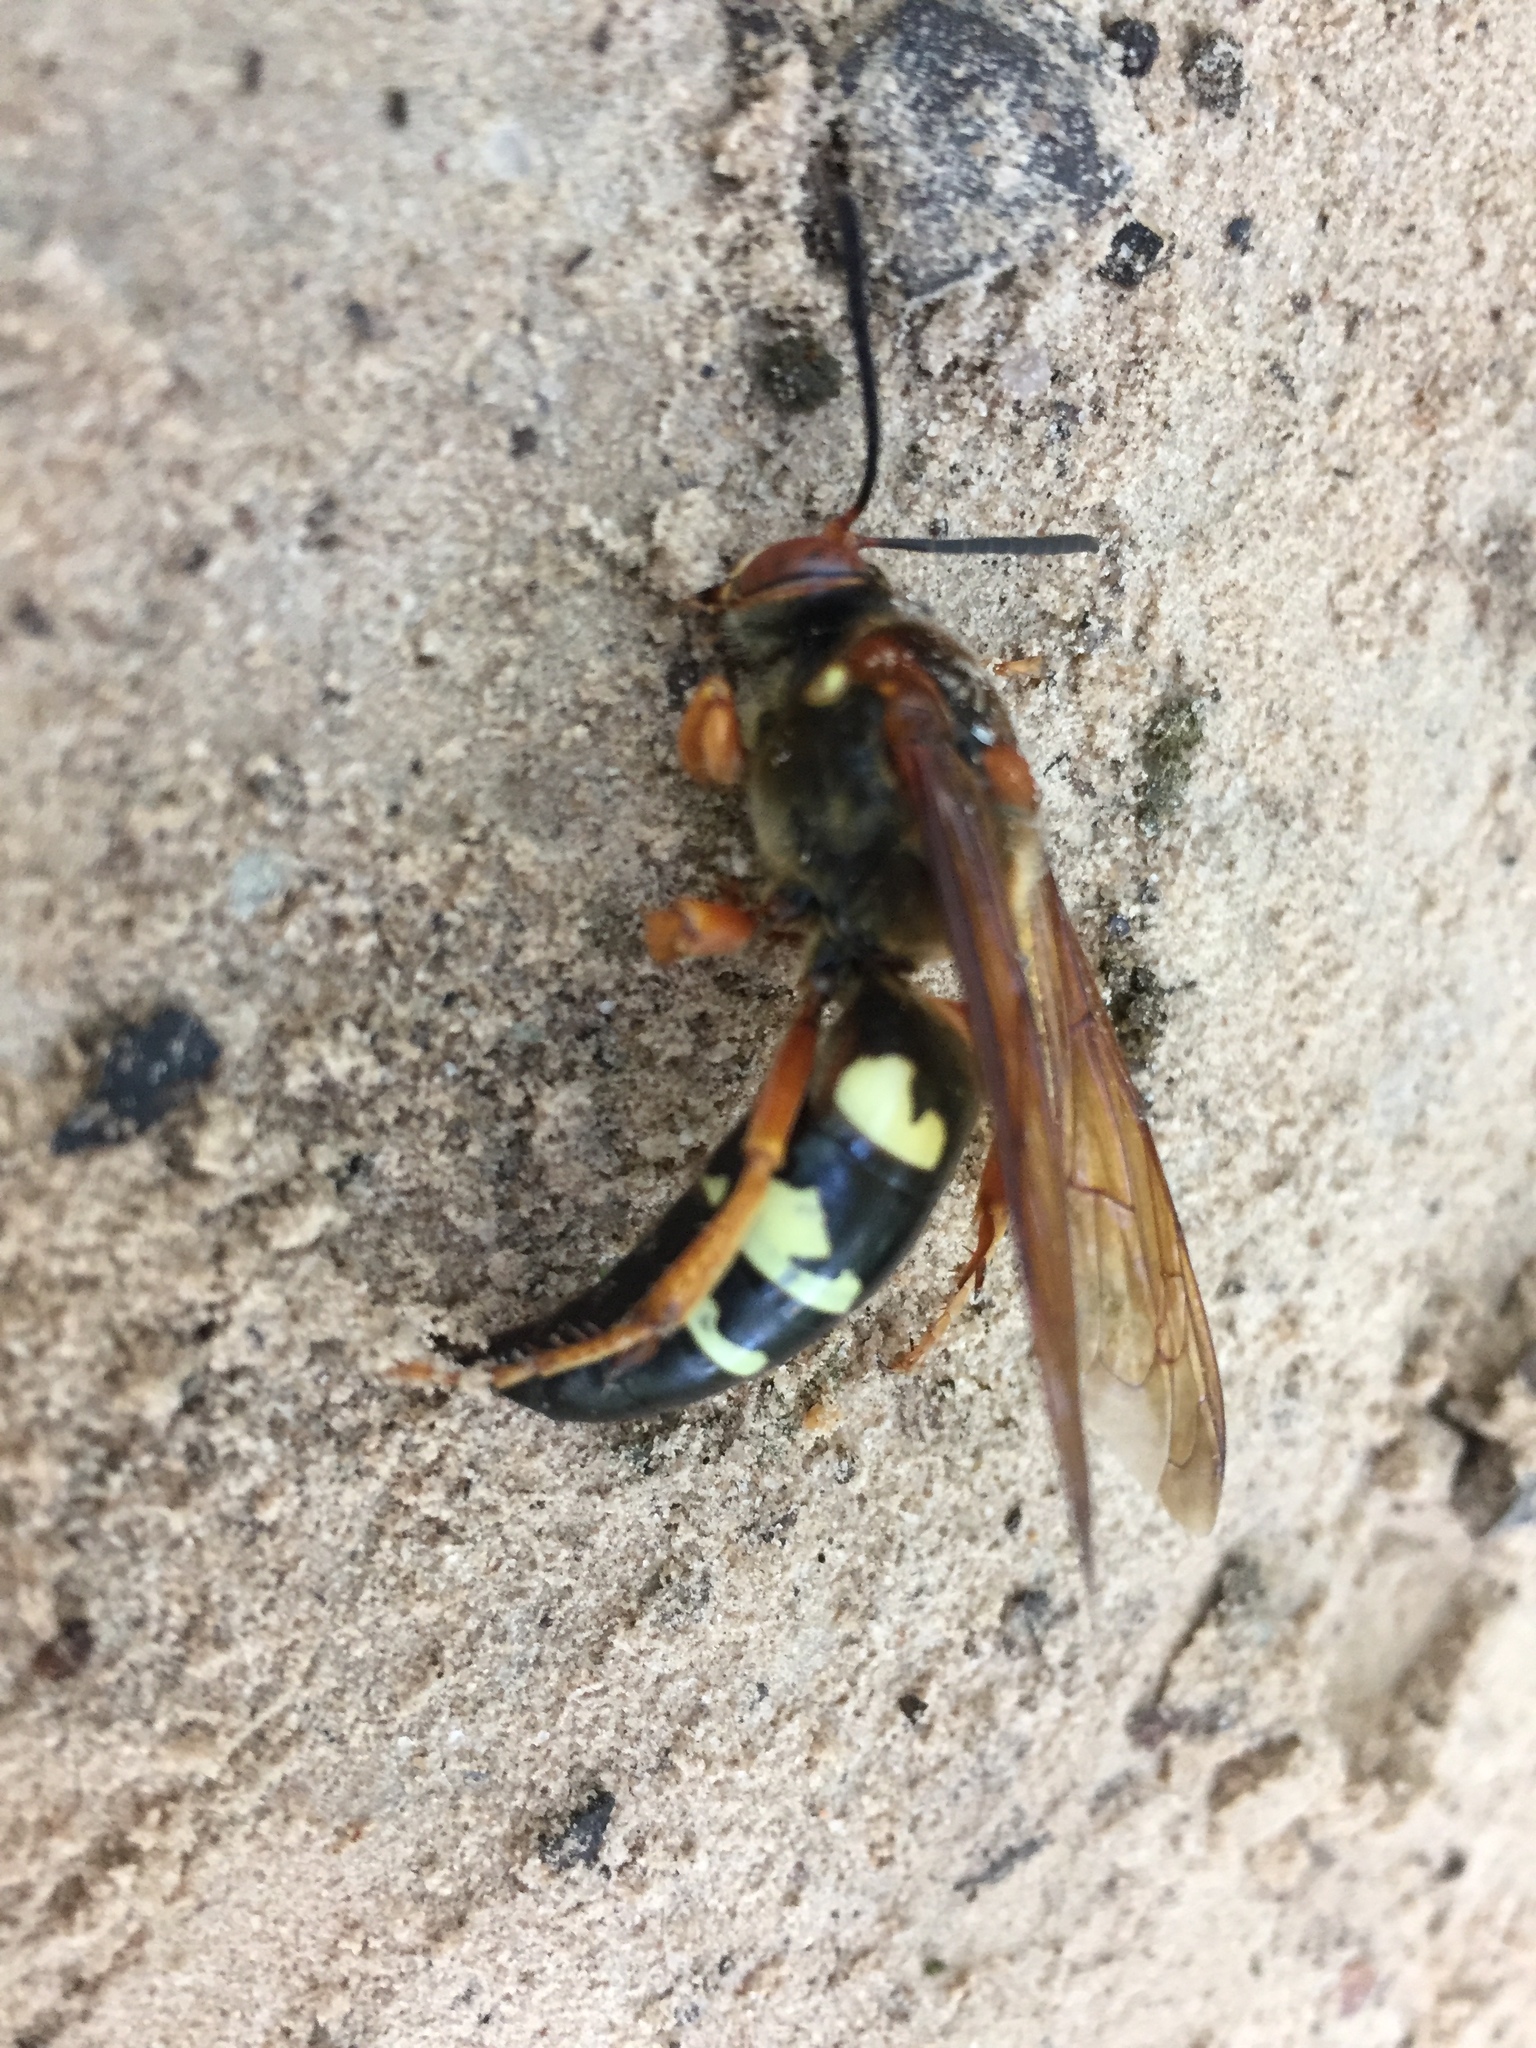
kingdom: Animalia
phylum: Arthropoda
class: Insecta
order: Hymenoptera
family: Crabronidae
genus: Sphecius
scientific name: Sphecius speciosus
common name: Cicada killer
